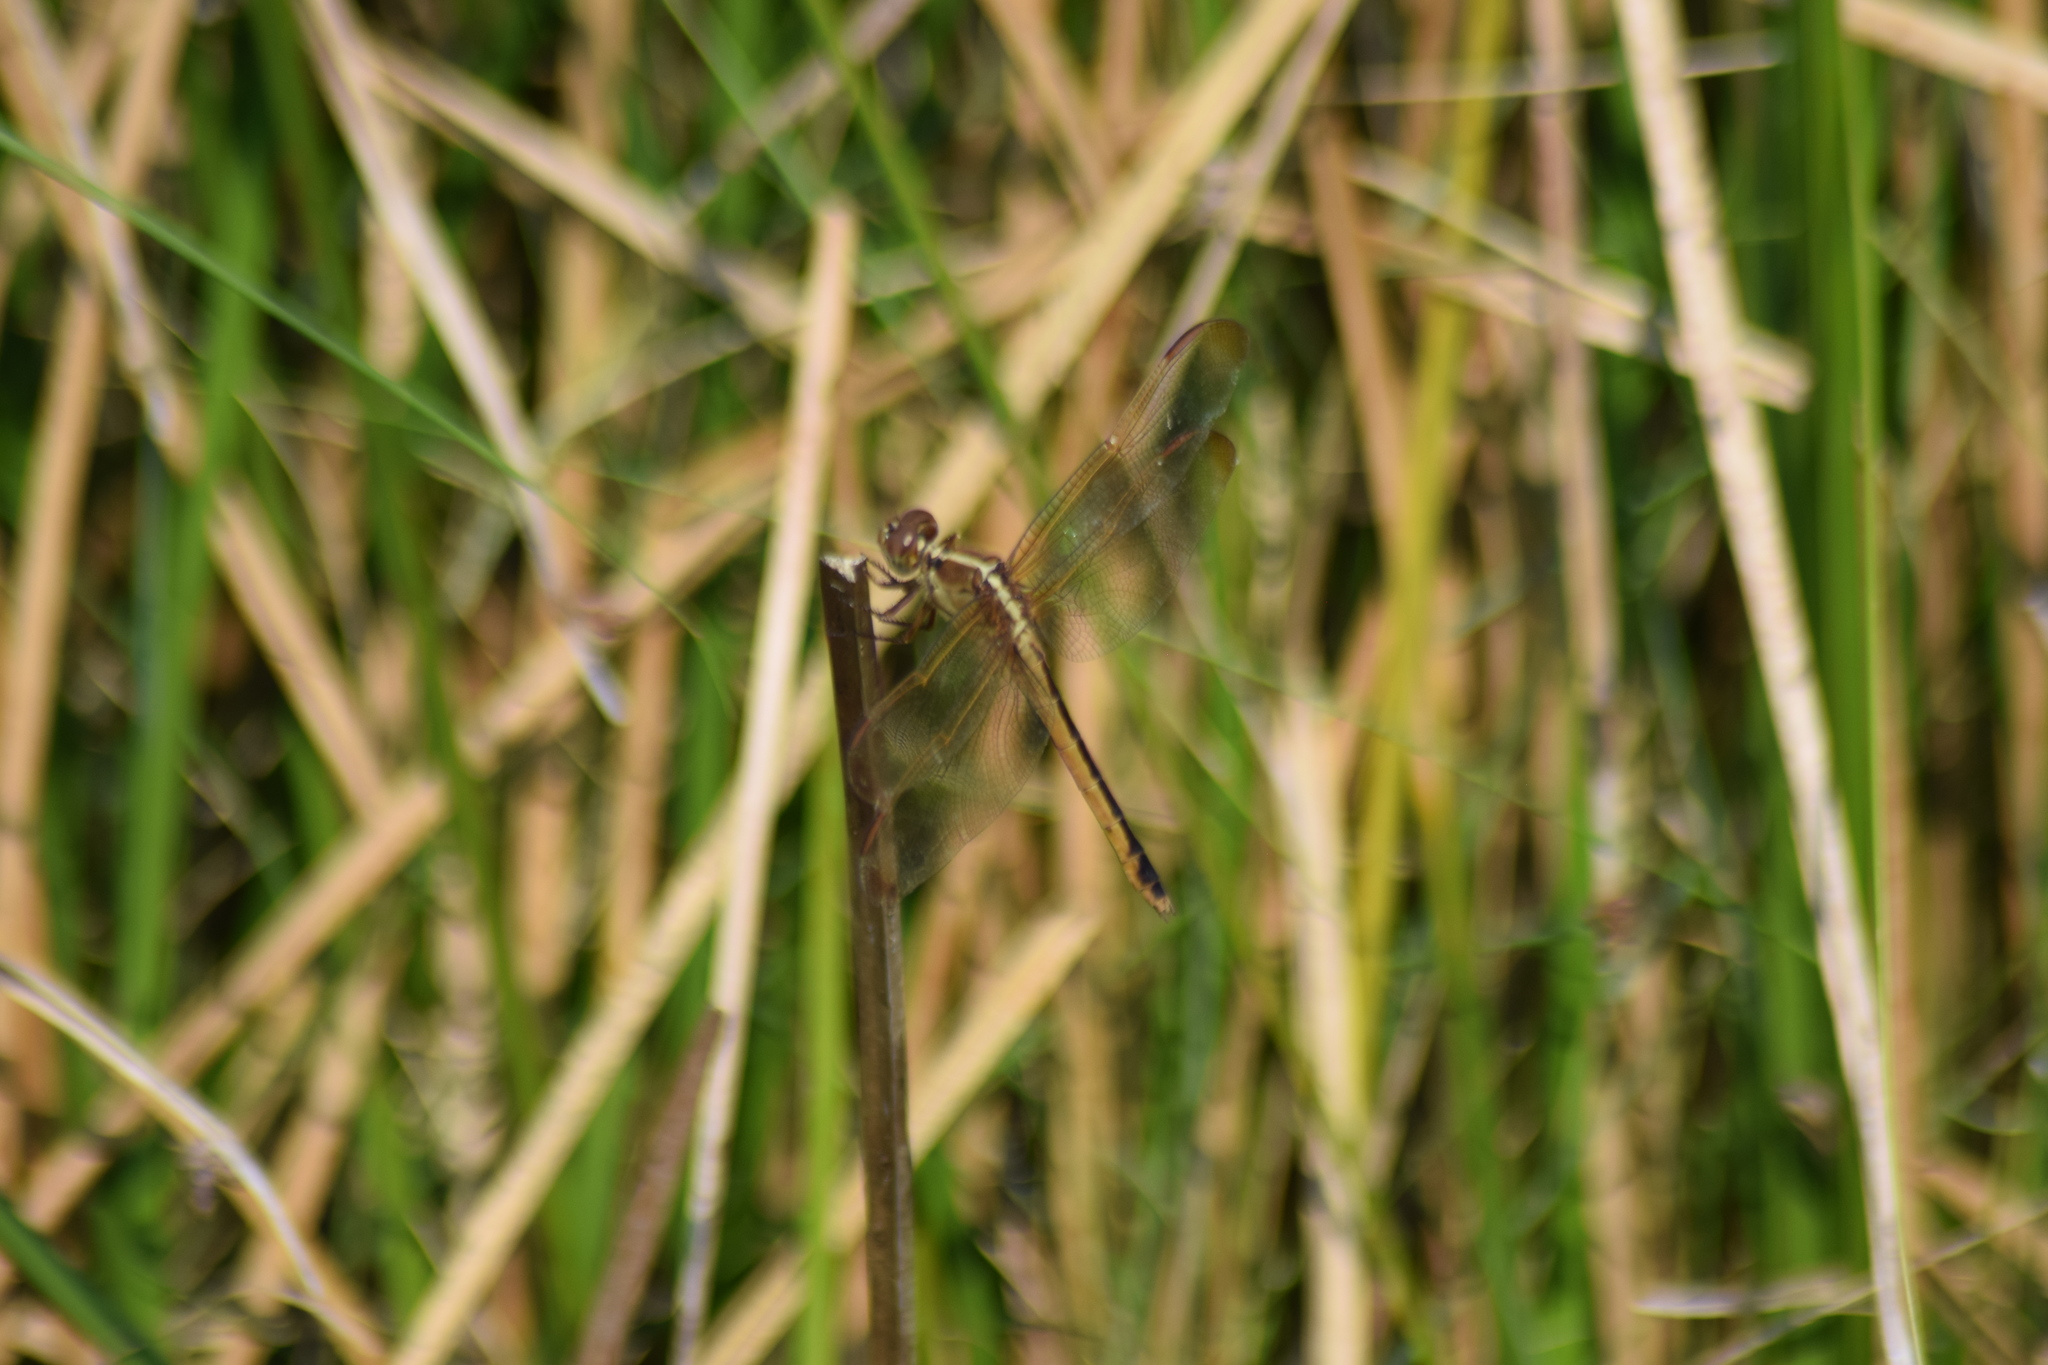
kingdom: Animalia
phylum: Arthropoda
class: Insecta
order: Odonata
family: Libellulidae
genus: Libellula
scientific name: Libellula needhami
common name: Needham's skimmer
